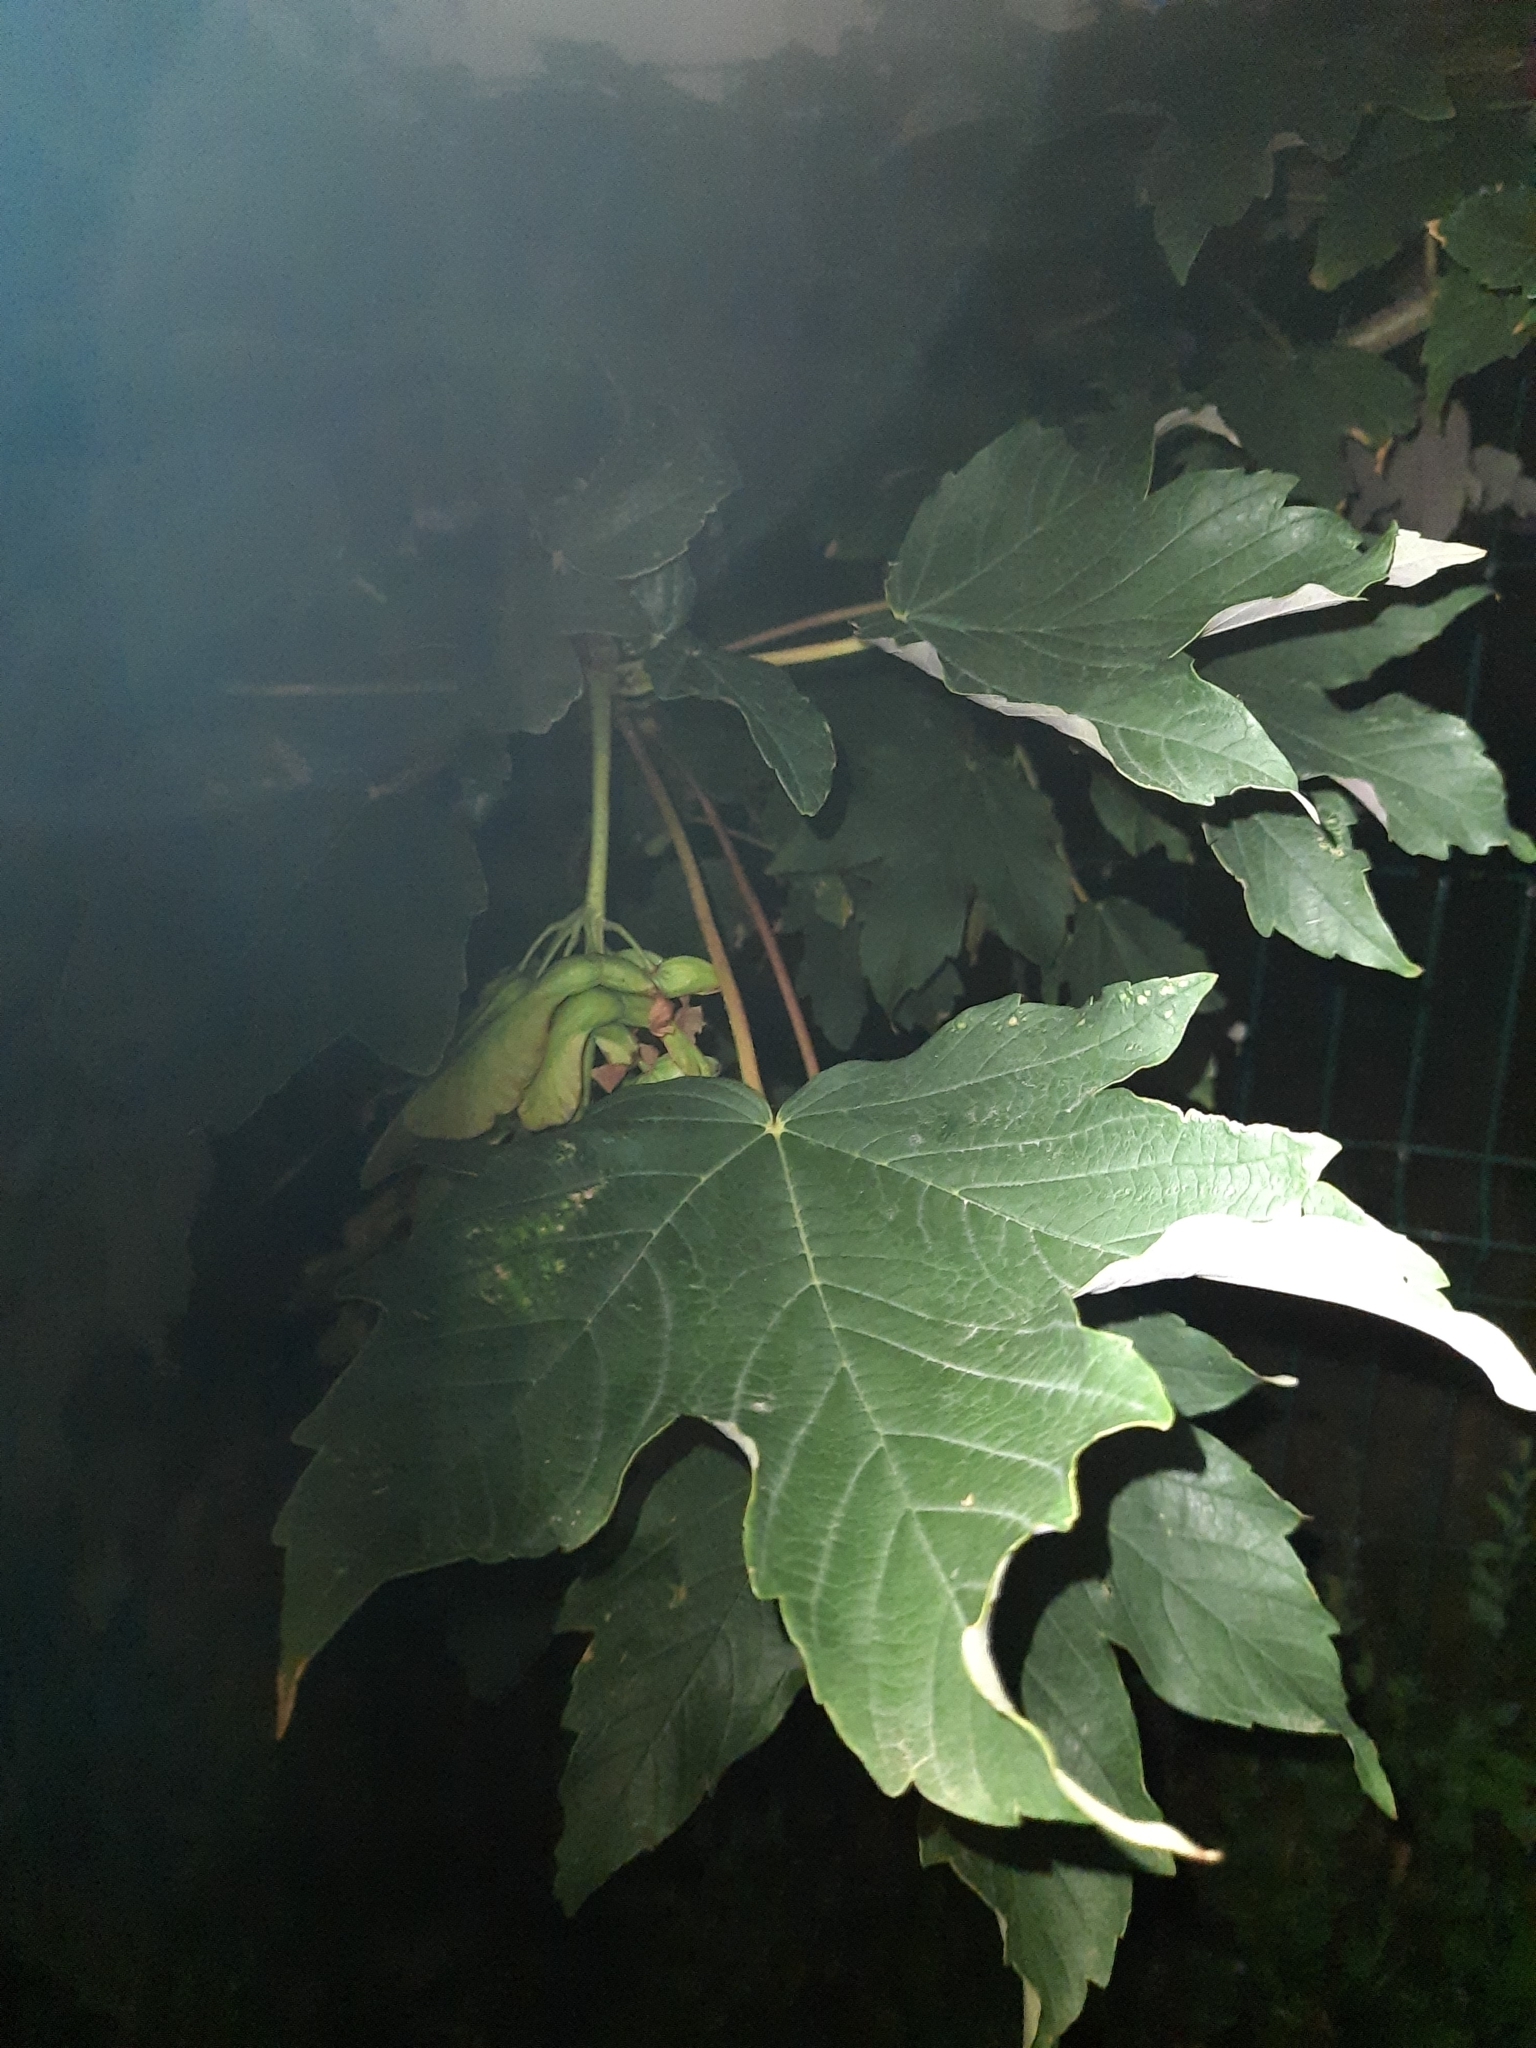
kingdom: Plantae
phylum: Tracheophyta
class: Magnoliopsida
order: Sapindales
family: Sapindaceae
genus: Acer
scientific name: Acer pseudoplatanus
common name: Sycamore
